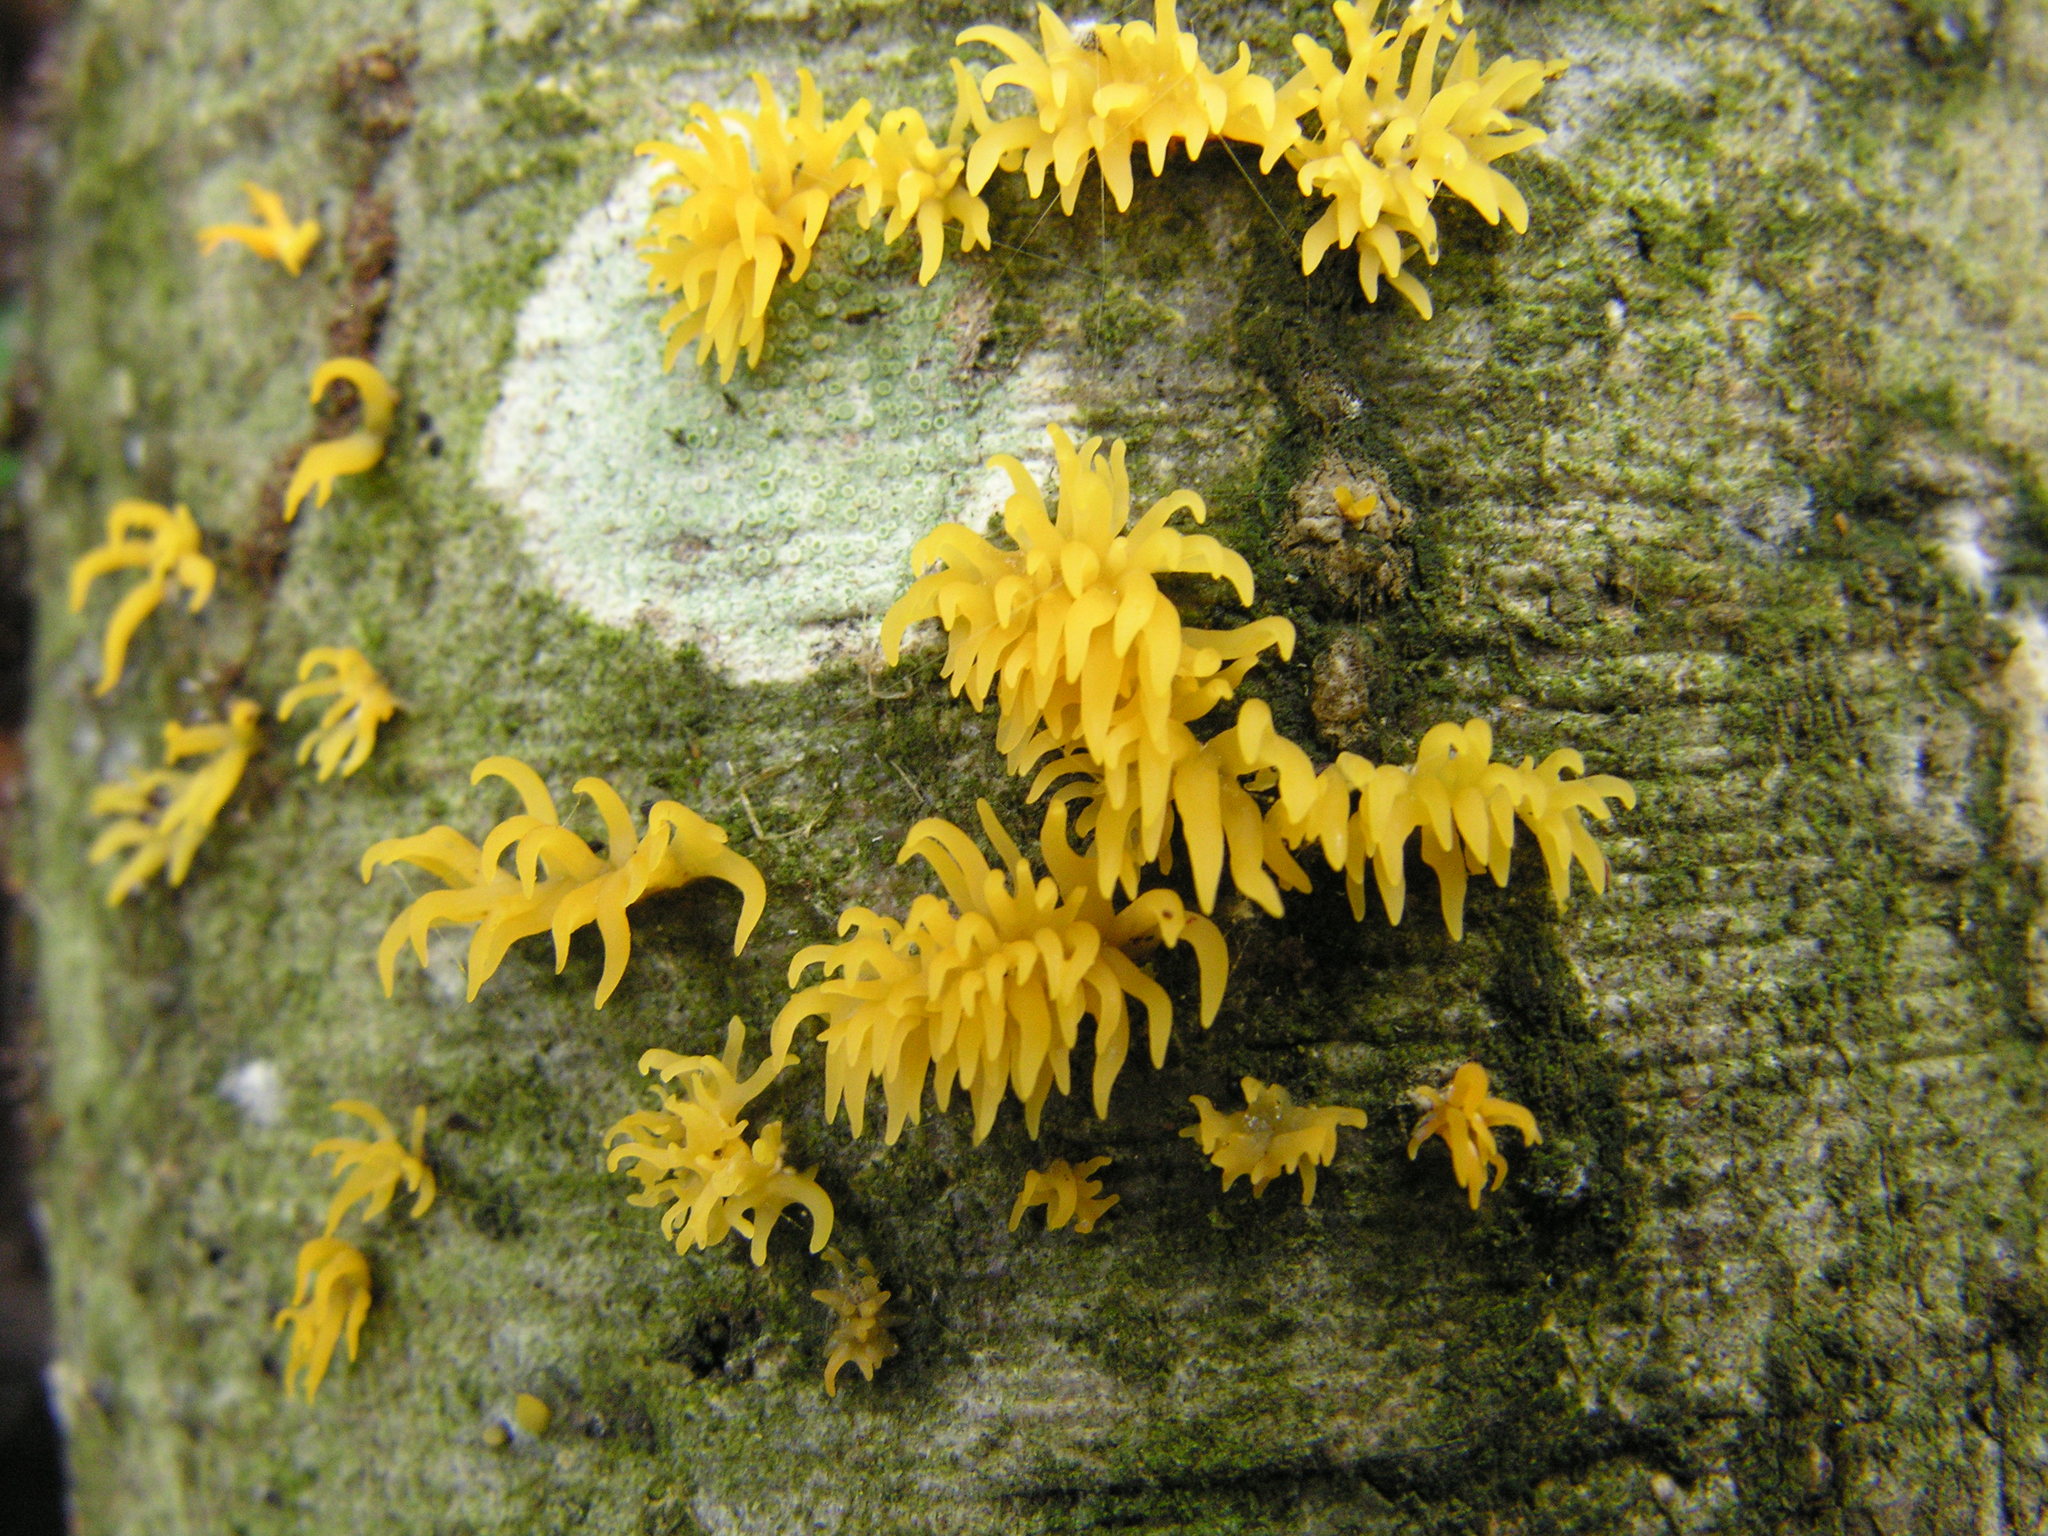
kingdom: Fungi
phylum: Basidiomycota
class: Dacrymycetes
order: Dacrymycetales
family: Dacrymycetaceae
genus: Calocera
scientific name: Calocera cornea
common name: Small stagshorn
